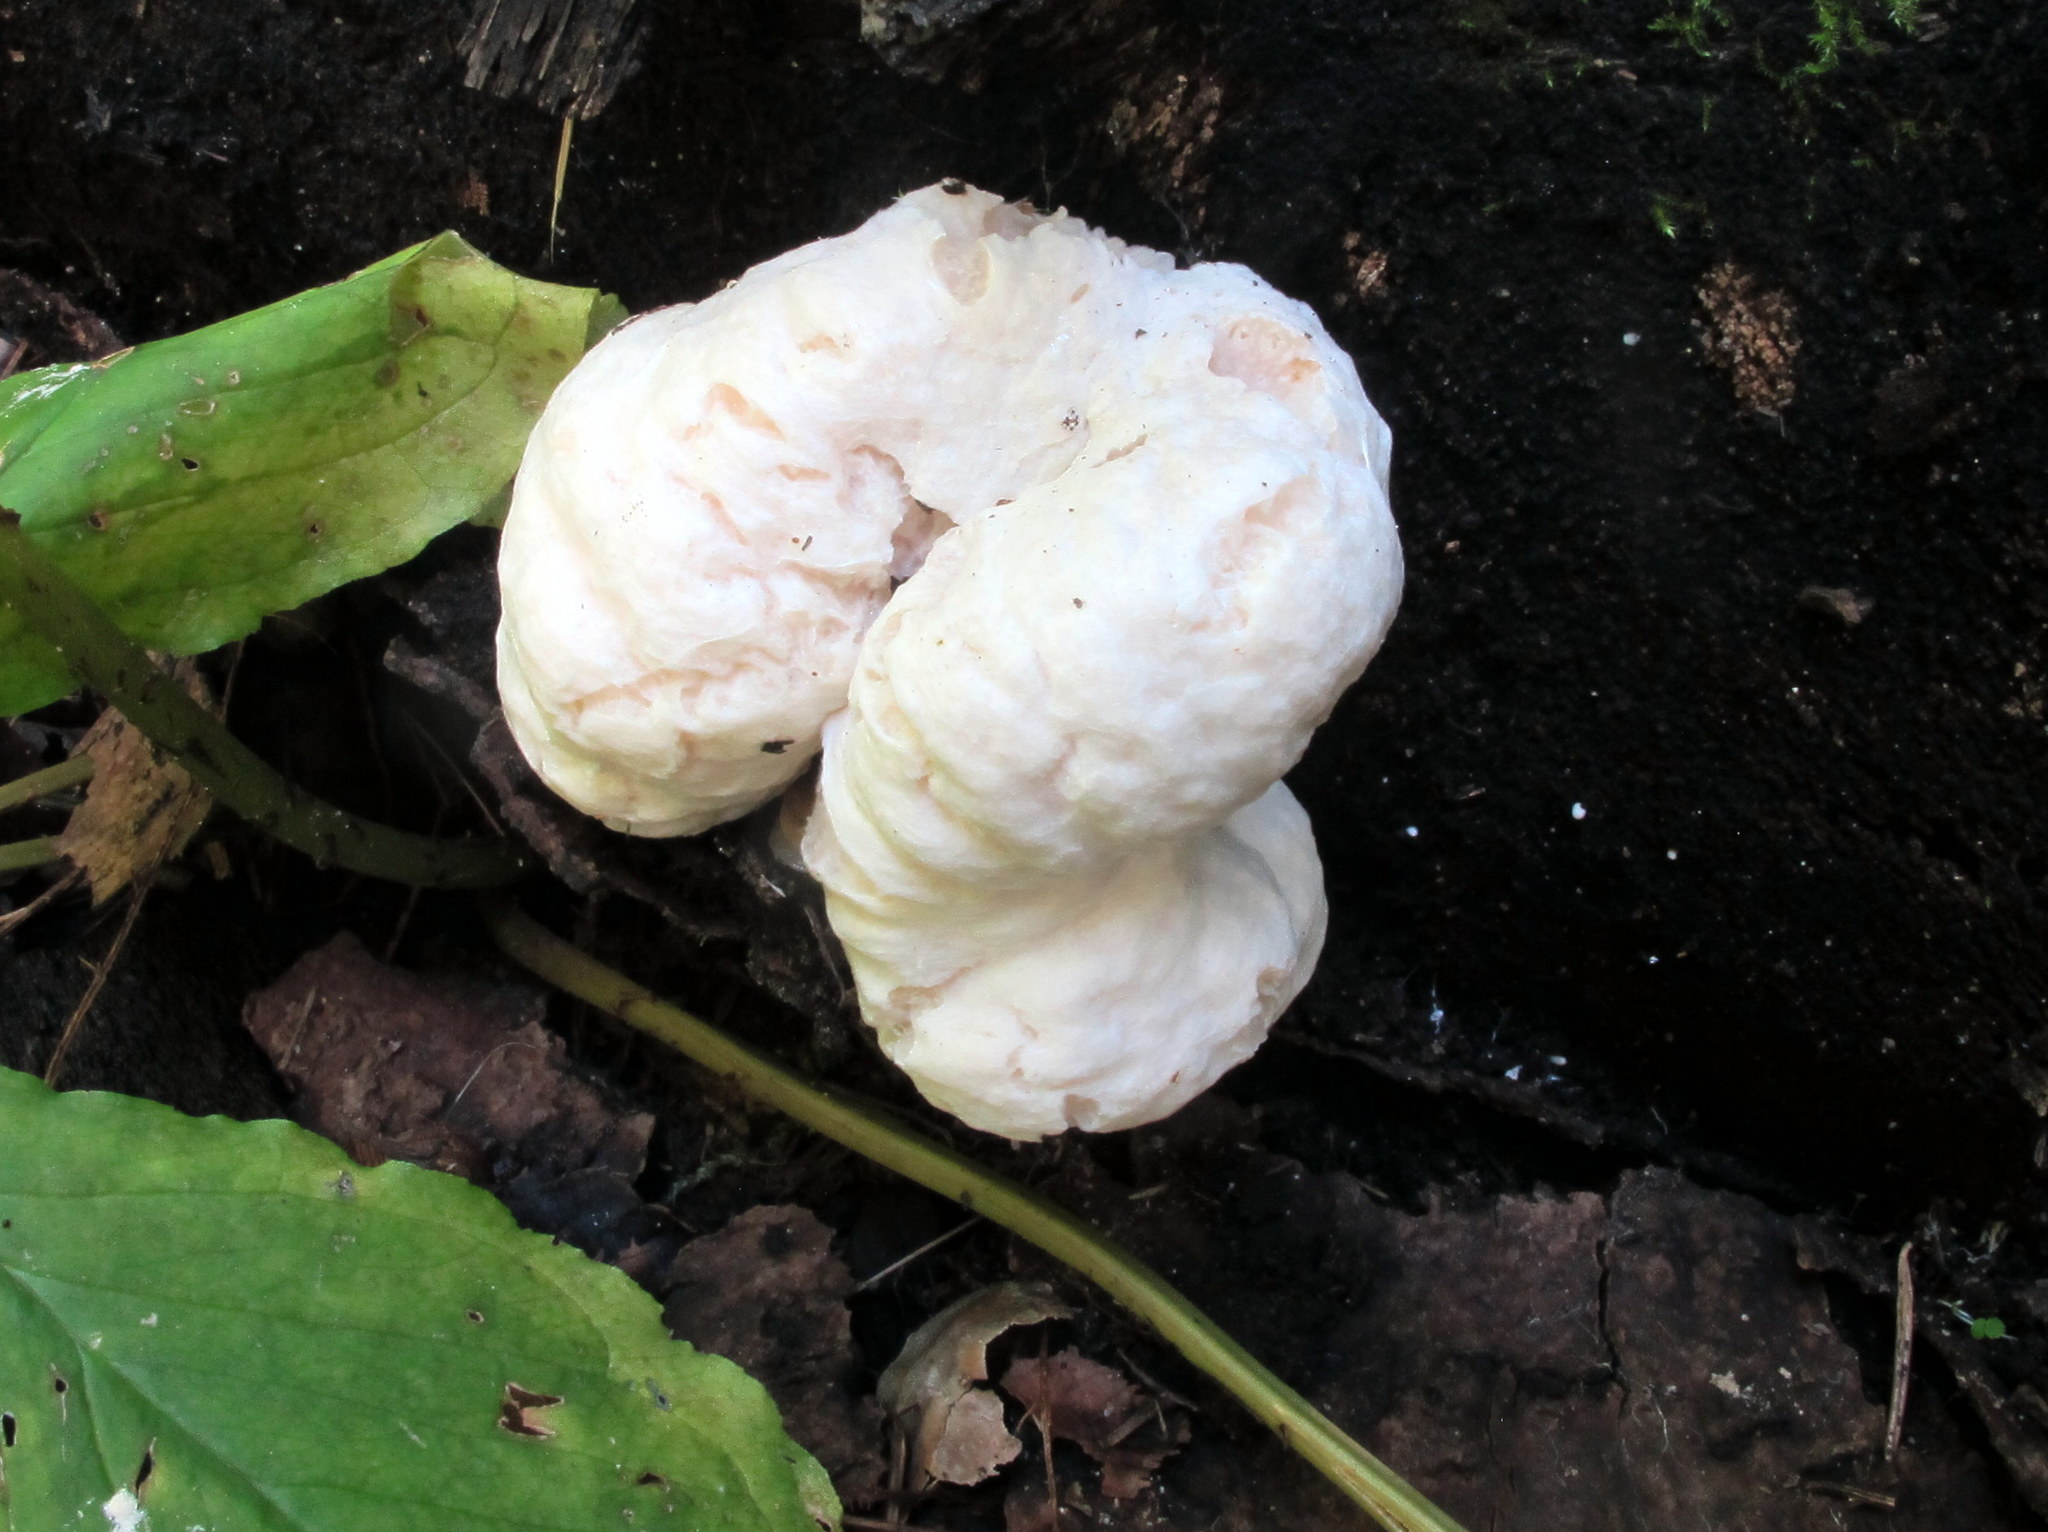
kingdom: Fungi
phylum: Basidiomycota
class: Agaricomycetes
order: Agaricales
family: Entolomataceae
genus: Entoloma
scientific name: Entoloma abortivum
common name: Aborted entoloma
